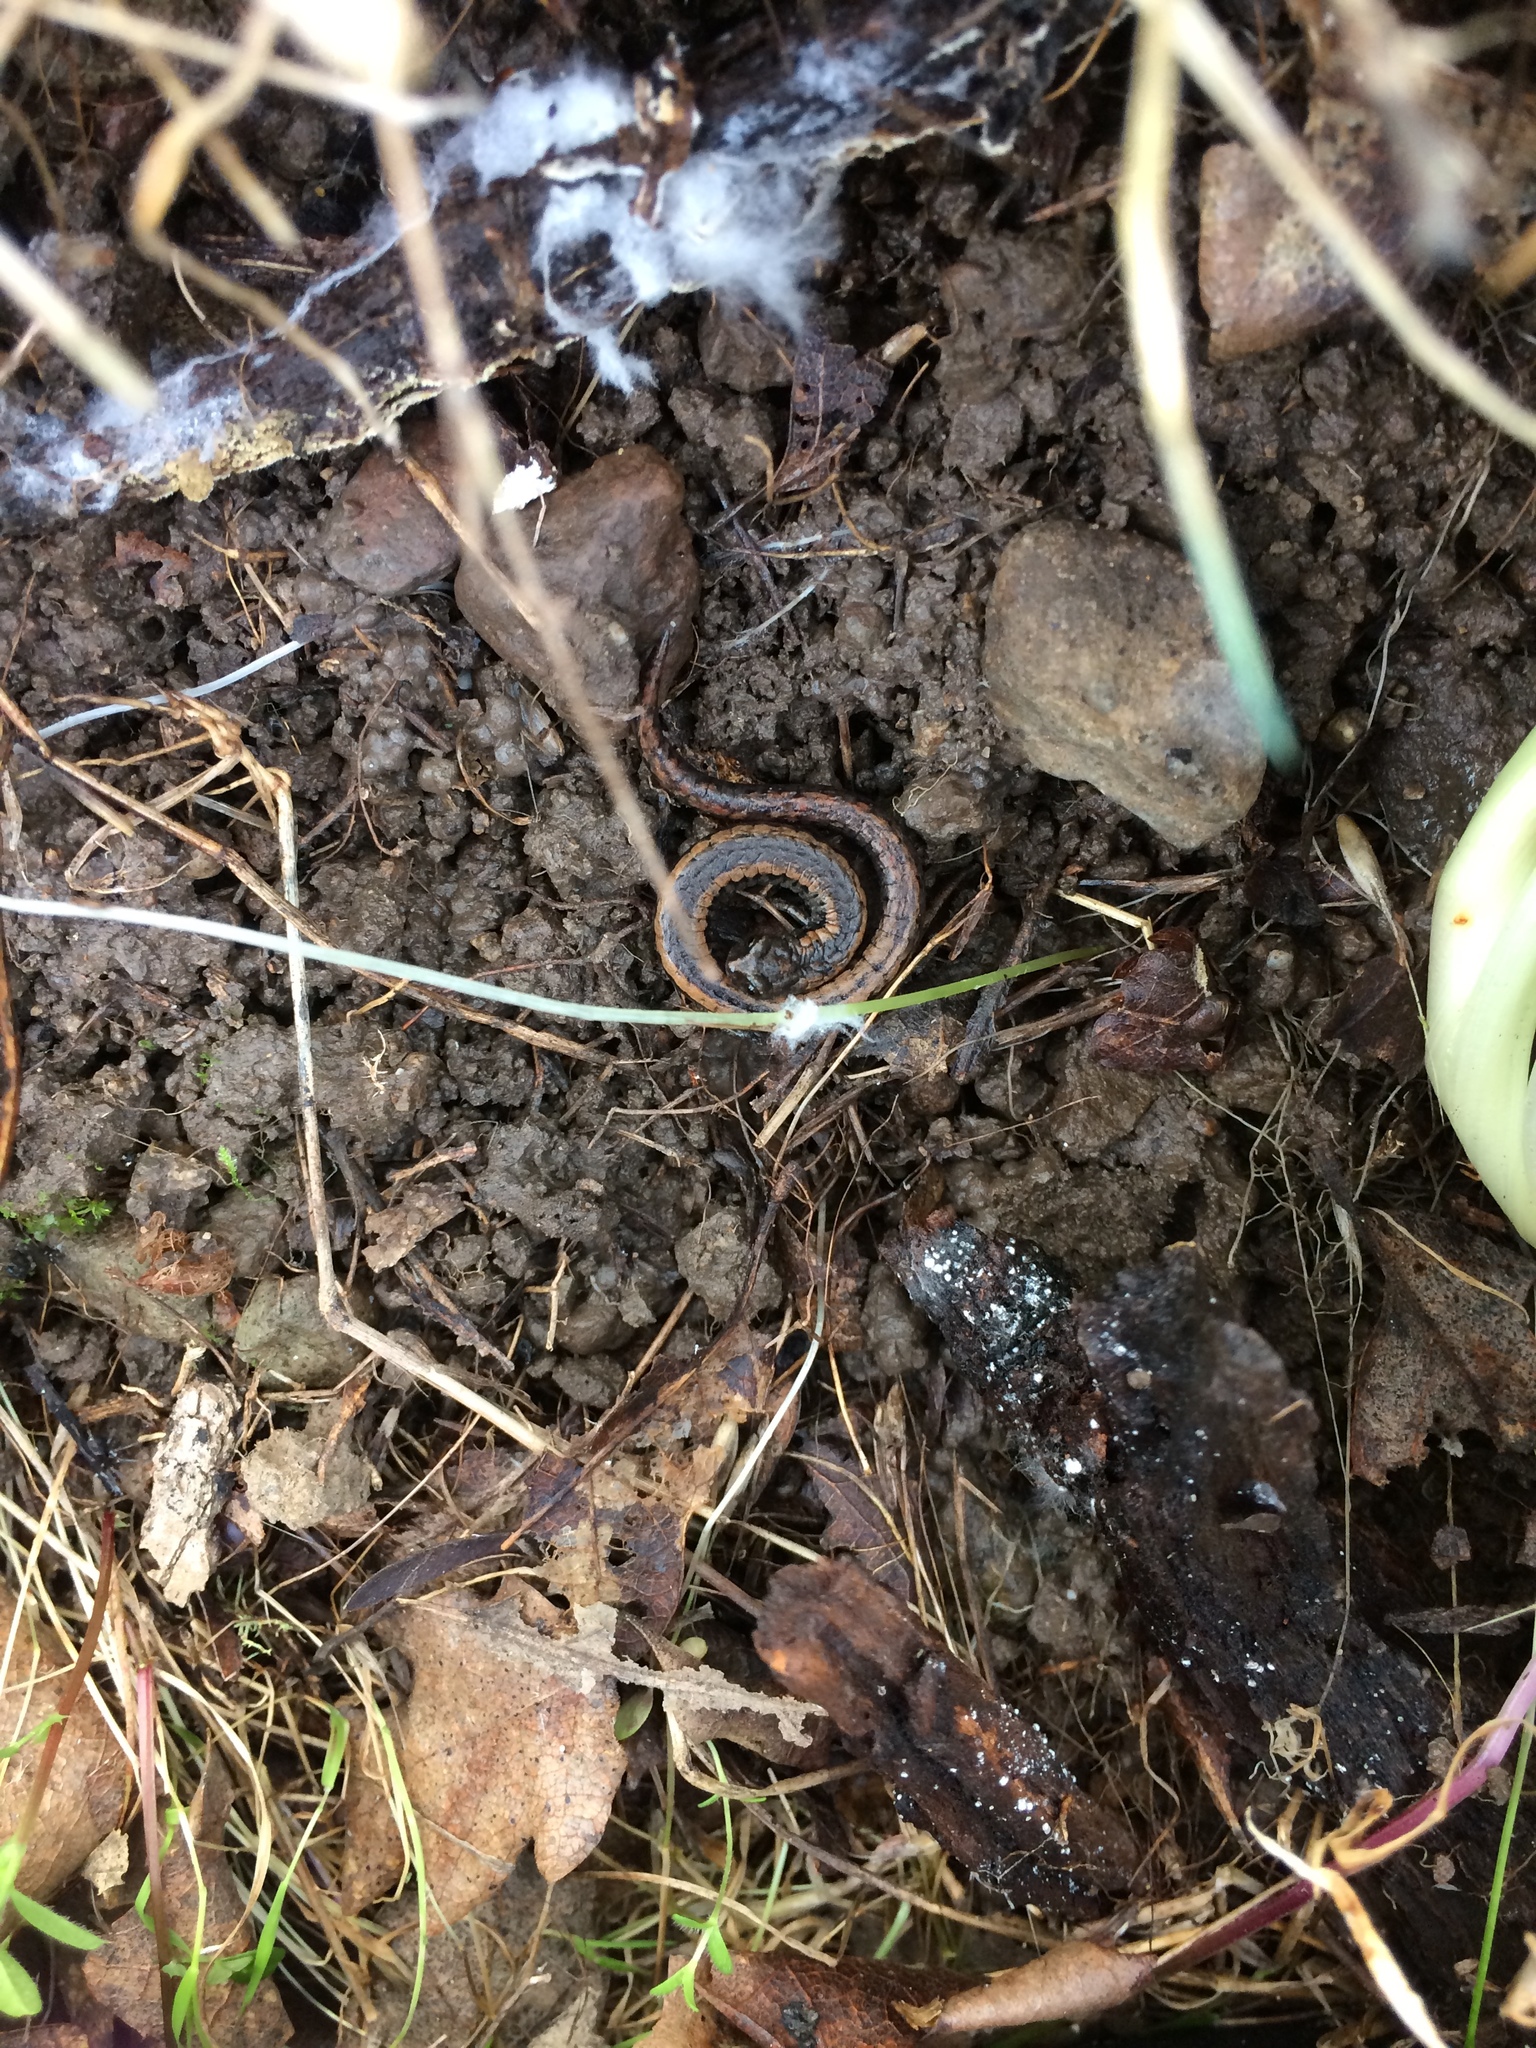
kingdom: Animalia
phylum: Chordata
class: Amphibia
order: Caudata
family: Plethodontidae
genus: Batrachoseps
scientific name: Batrachoseps attenuatus
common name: California slender salamander
